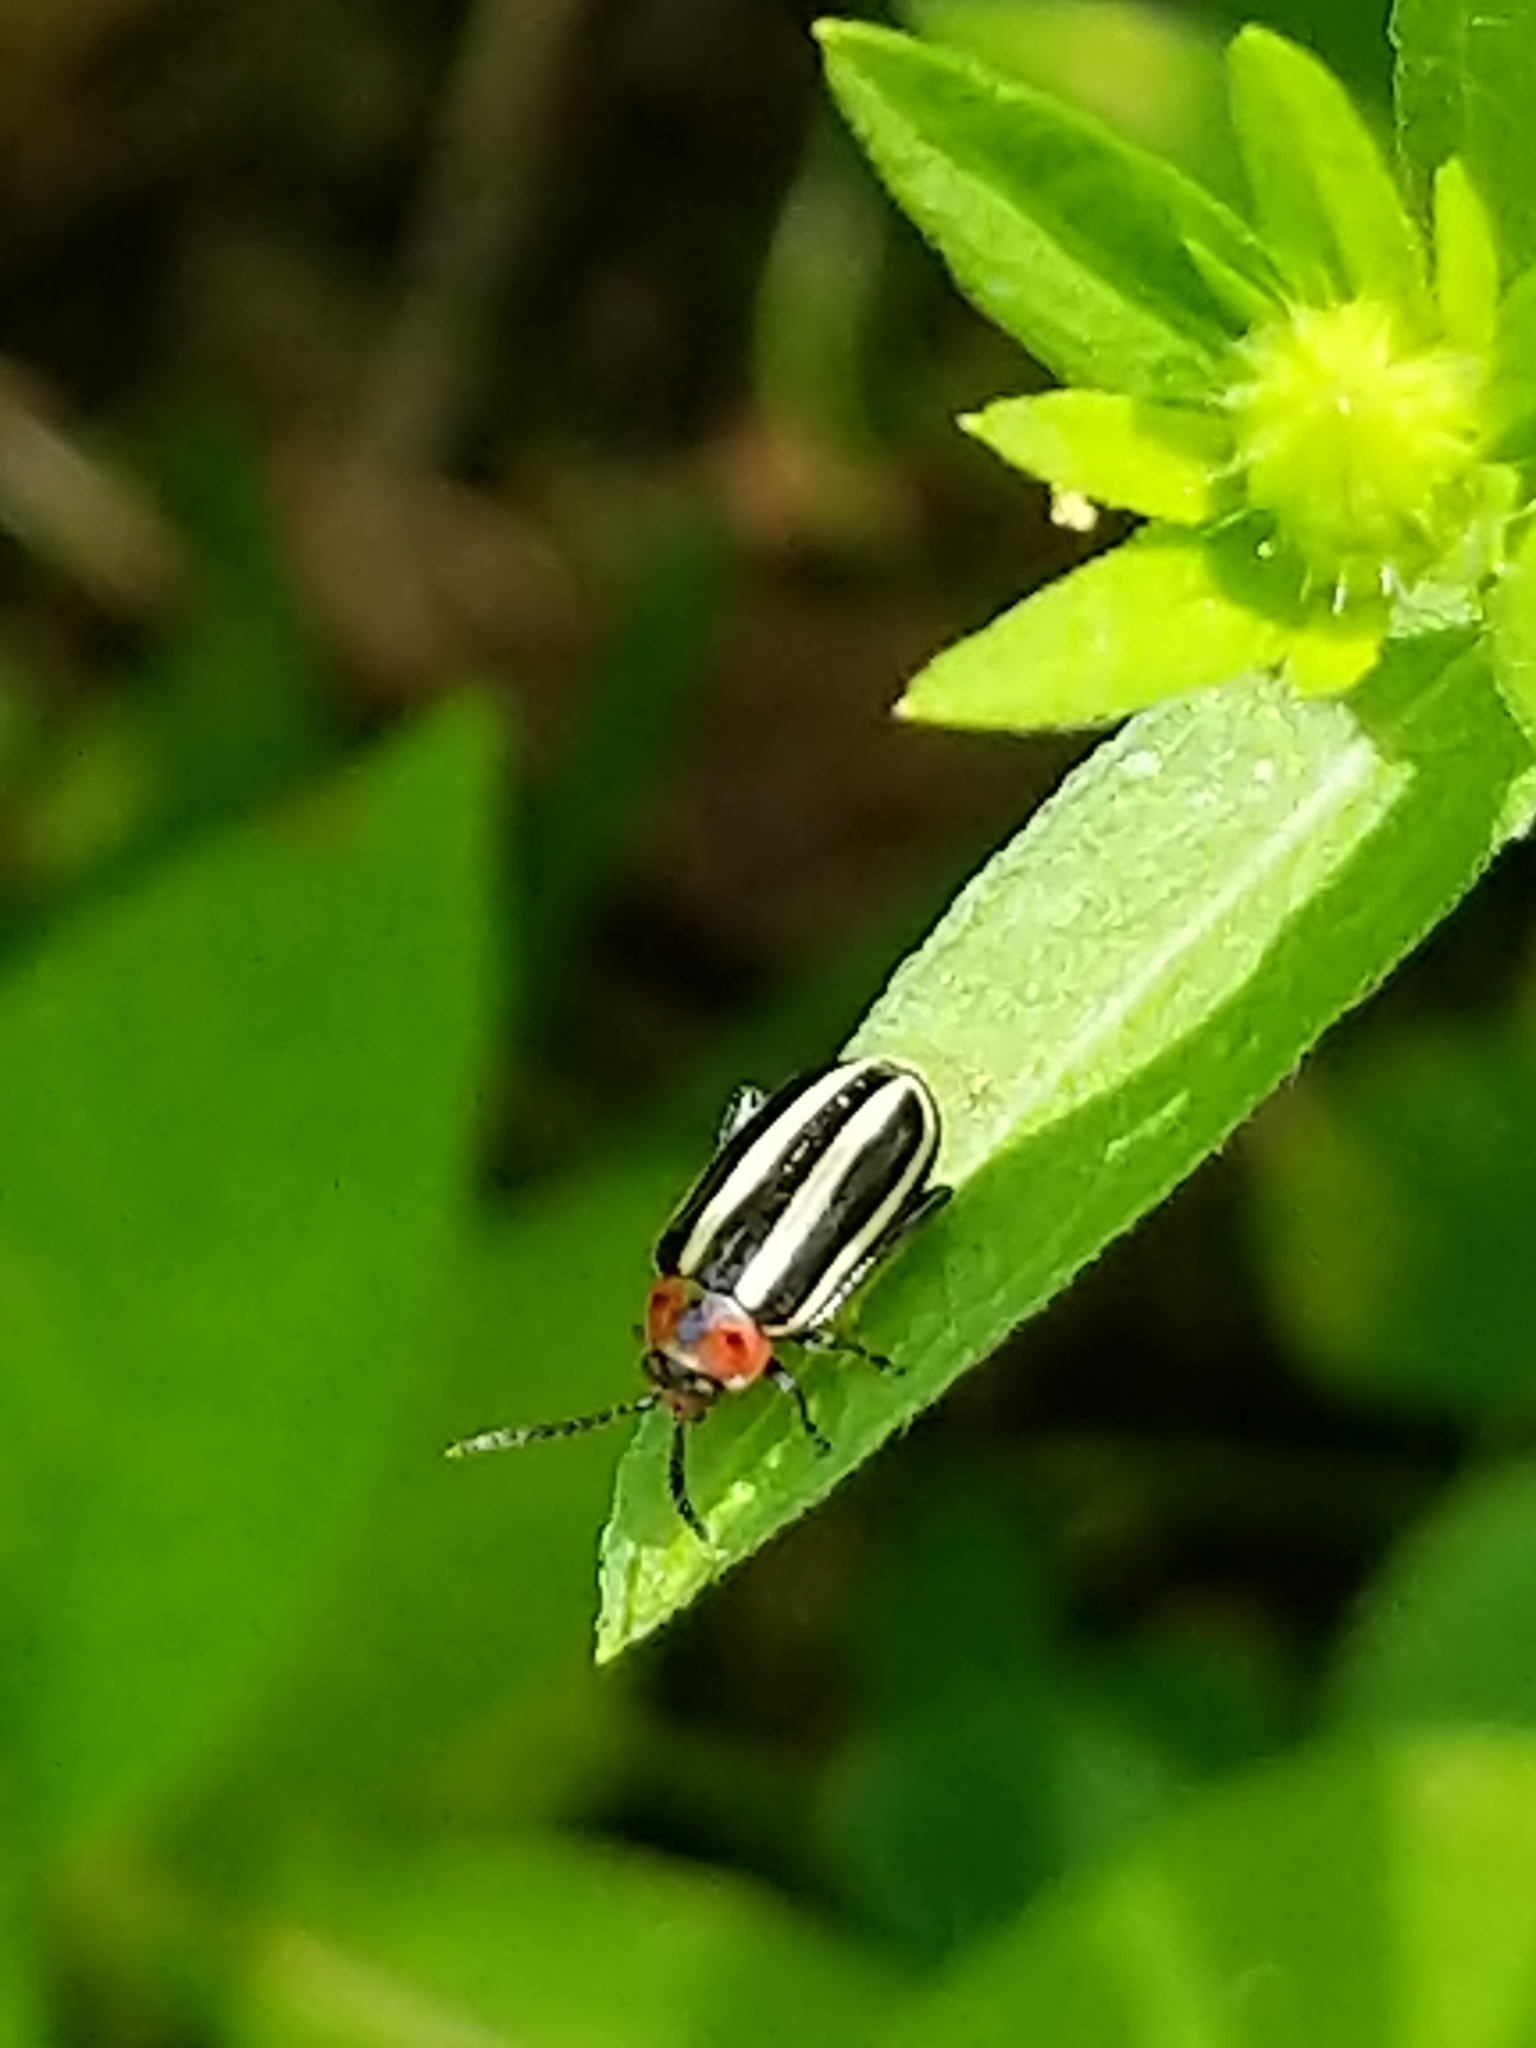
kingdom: Animalia
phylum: Arthropoda
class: Insecta
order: Coleoptera
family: Chrysomelidae
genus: Disonycha
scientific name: Disonycha glabrata
